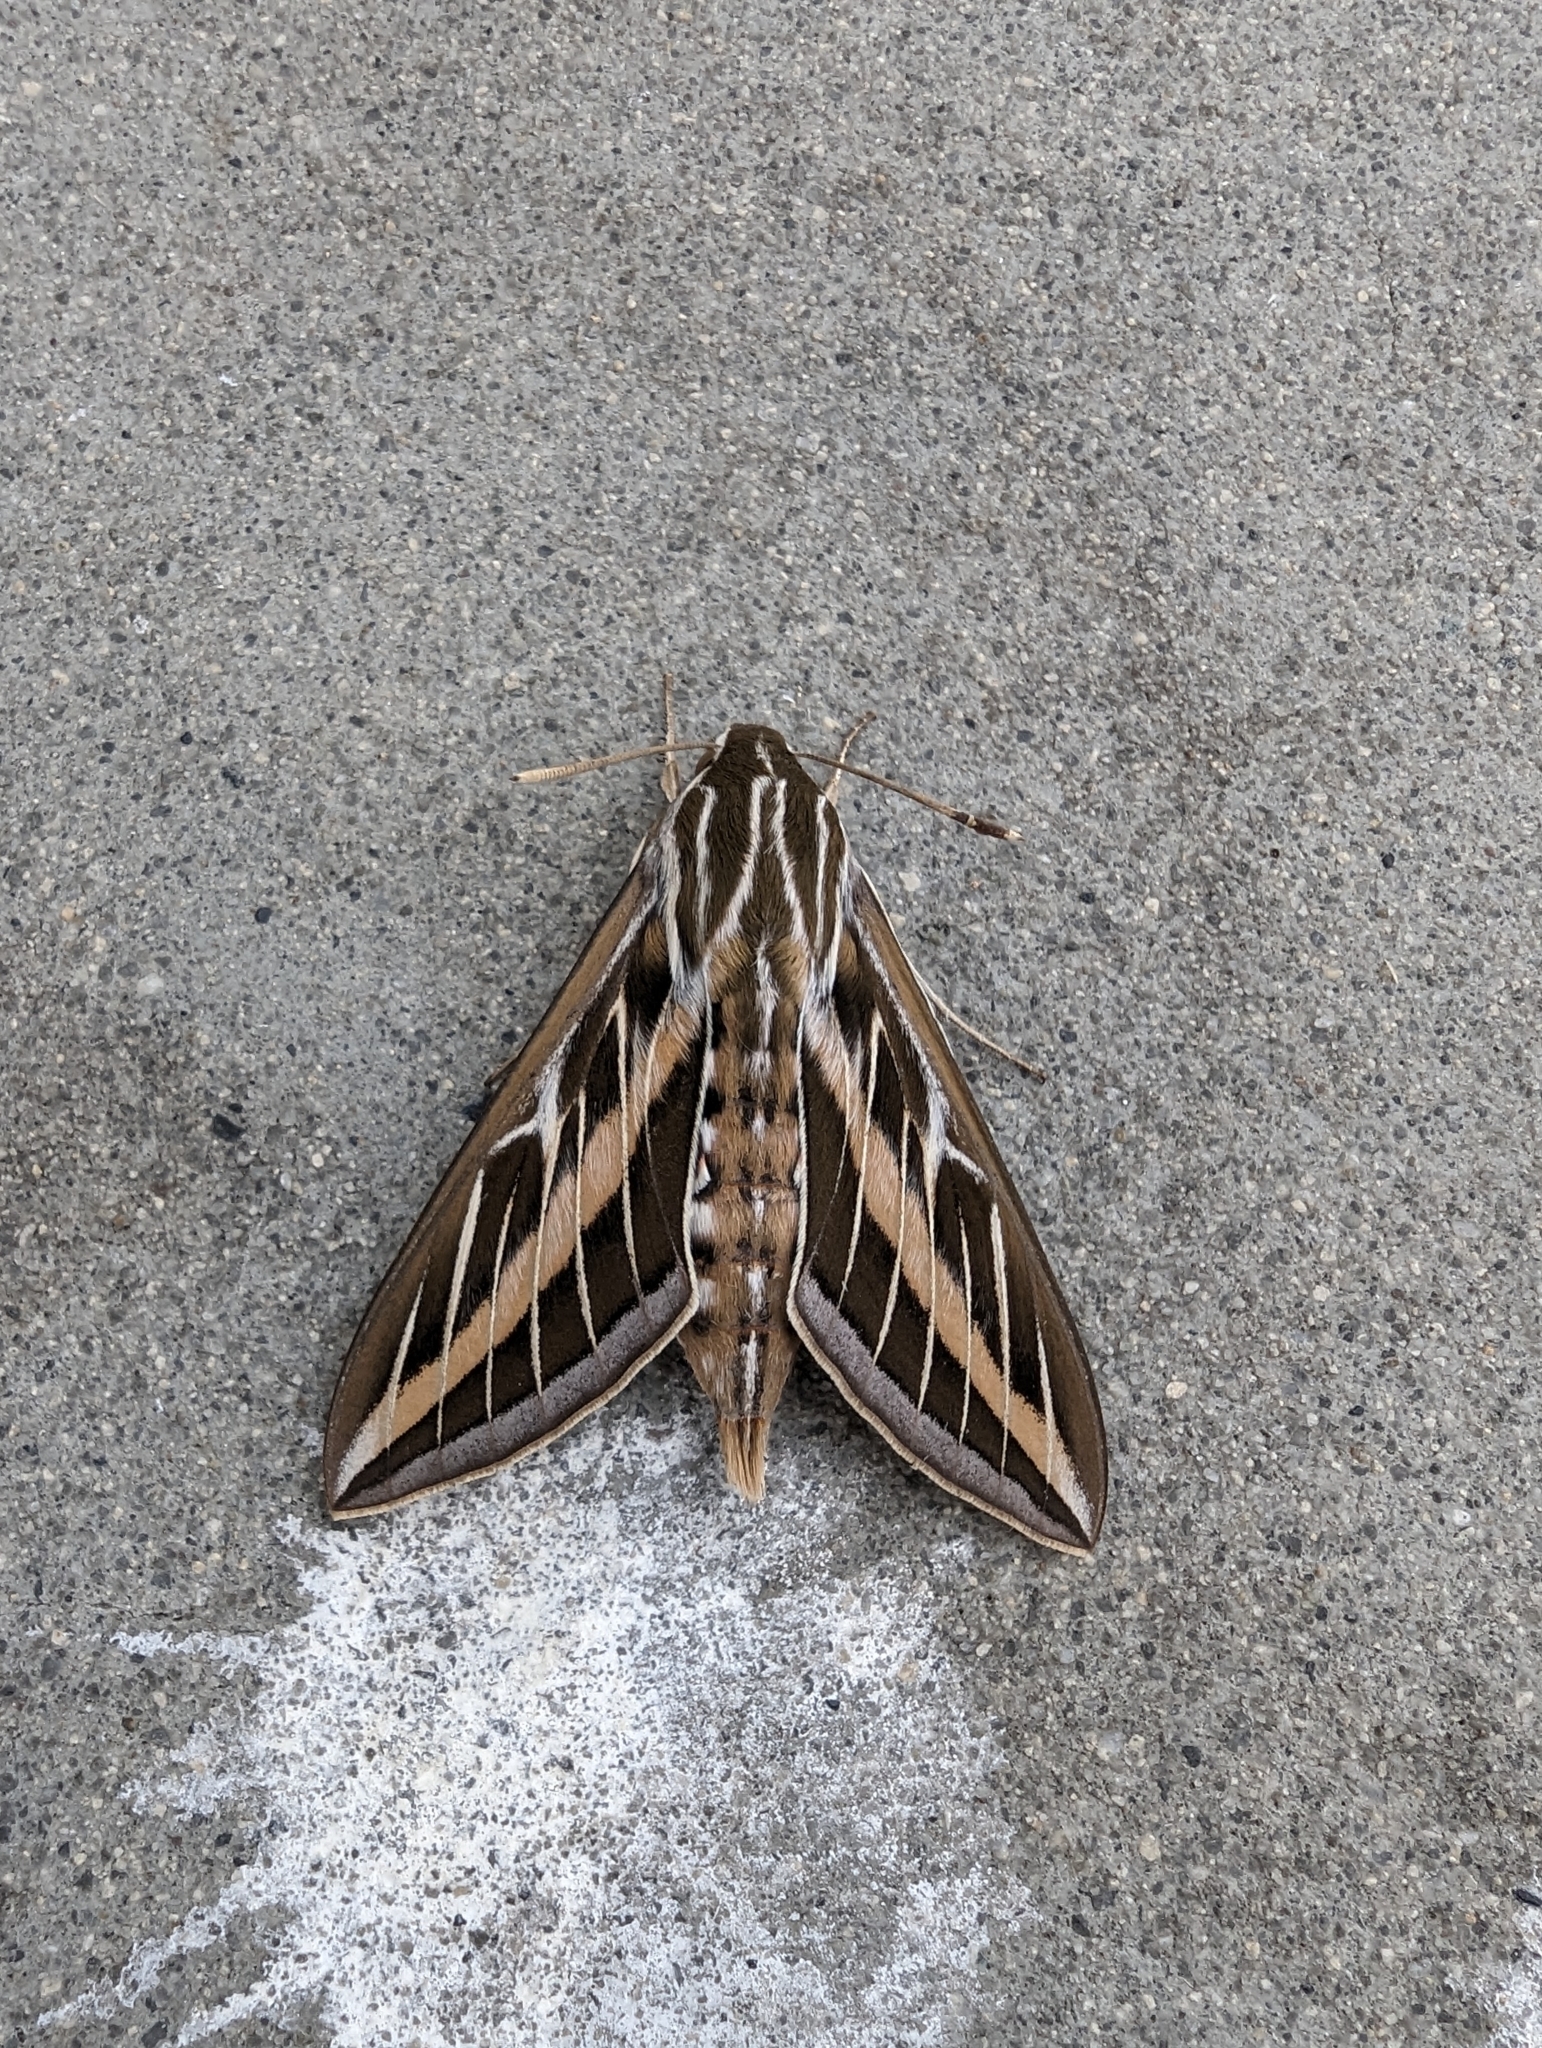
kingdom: Animalia
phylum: Arthropoda
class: Insecta
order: Lepidoptera
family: Sphingidae
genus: Hyles
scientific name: Hyles lineata
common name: White-lined sphinx
